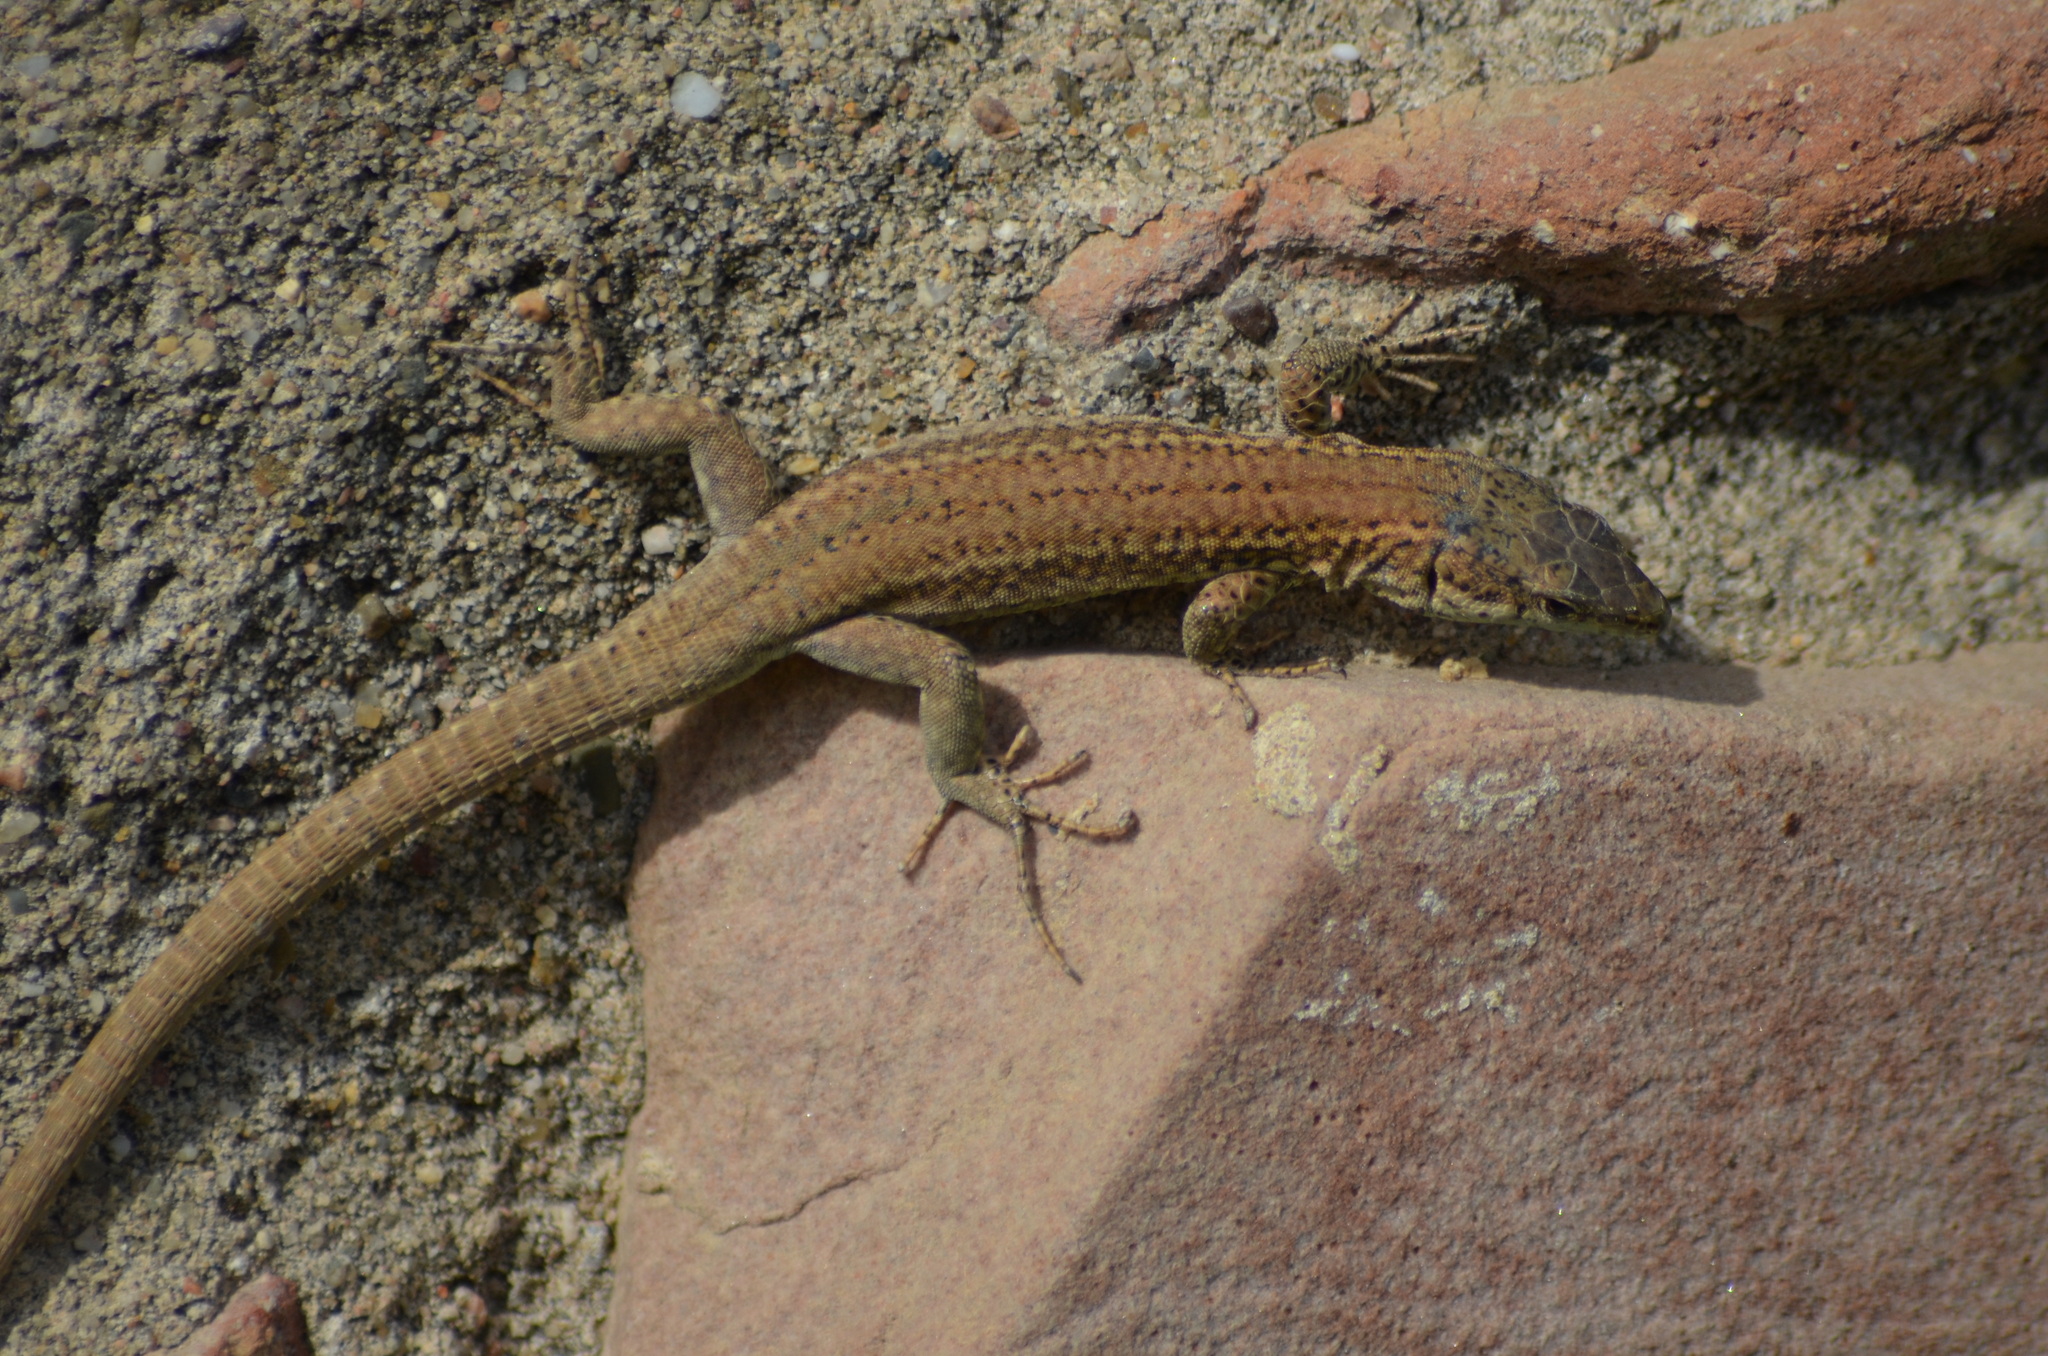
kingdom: Animalia
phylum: Chordata
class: Squamata
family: Lacertidae
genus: Podarcis
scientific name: Podarcis liolepis
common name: Catalonian wall lizard
